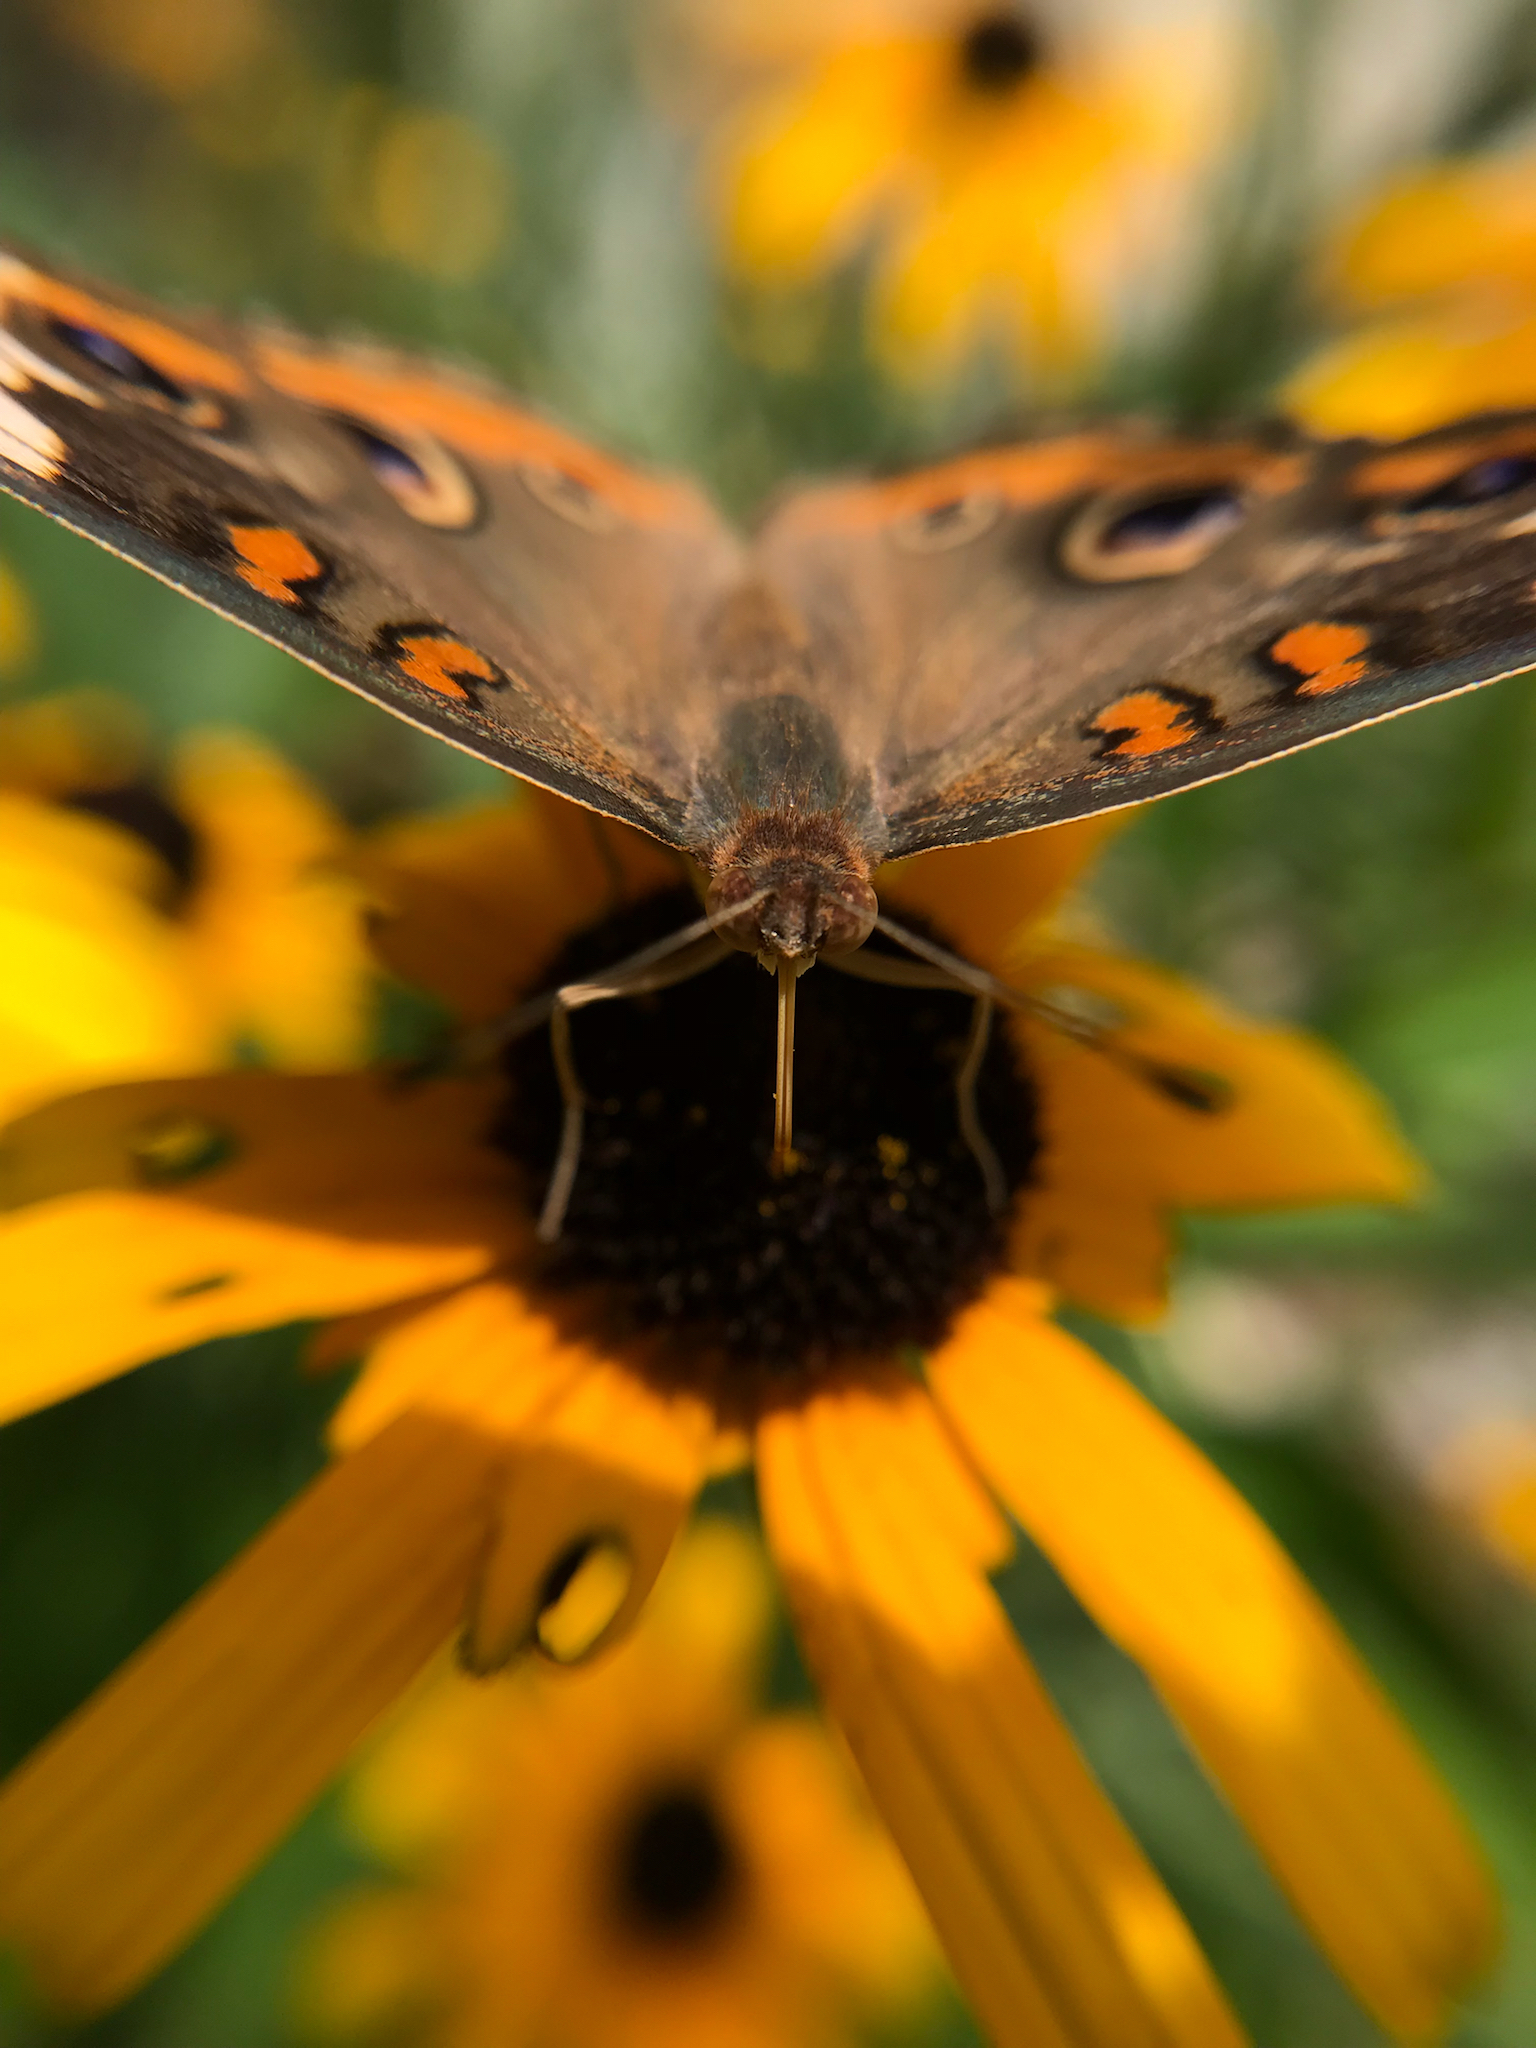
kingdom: Animalia
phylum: Arthropoda
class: Insecta
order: Lepidoptera
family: Nymphalidae
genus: Junonia
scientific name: Junonia coenia
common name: Common buckeye
